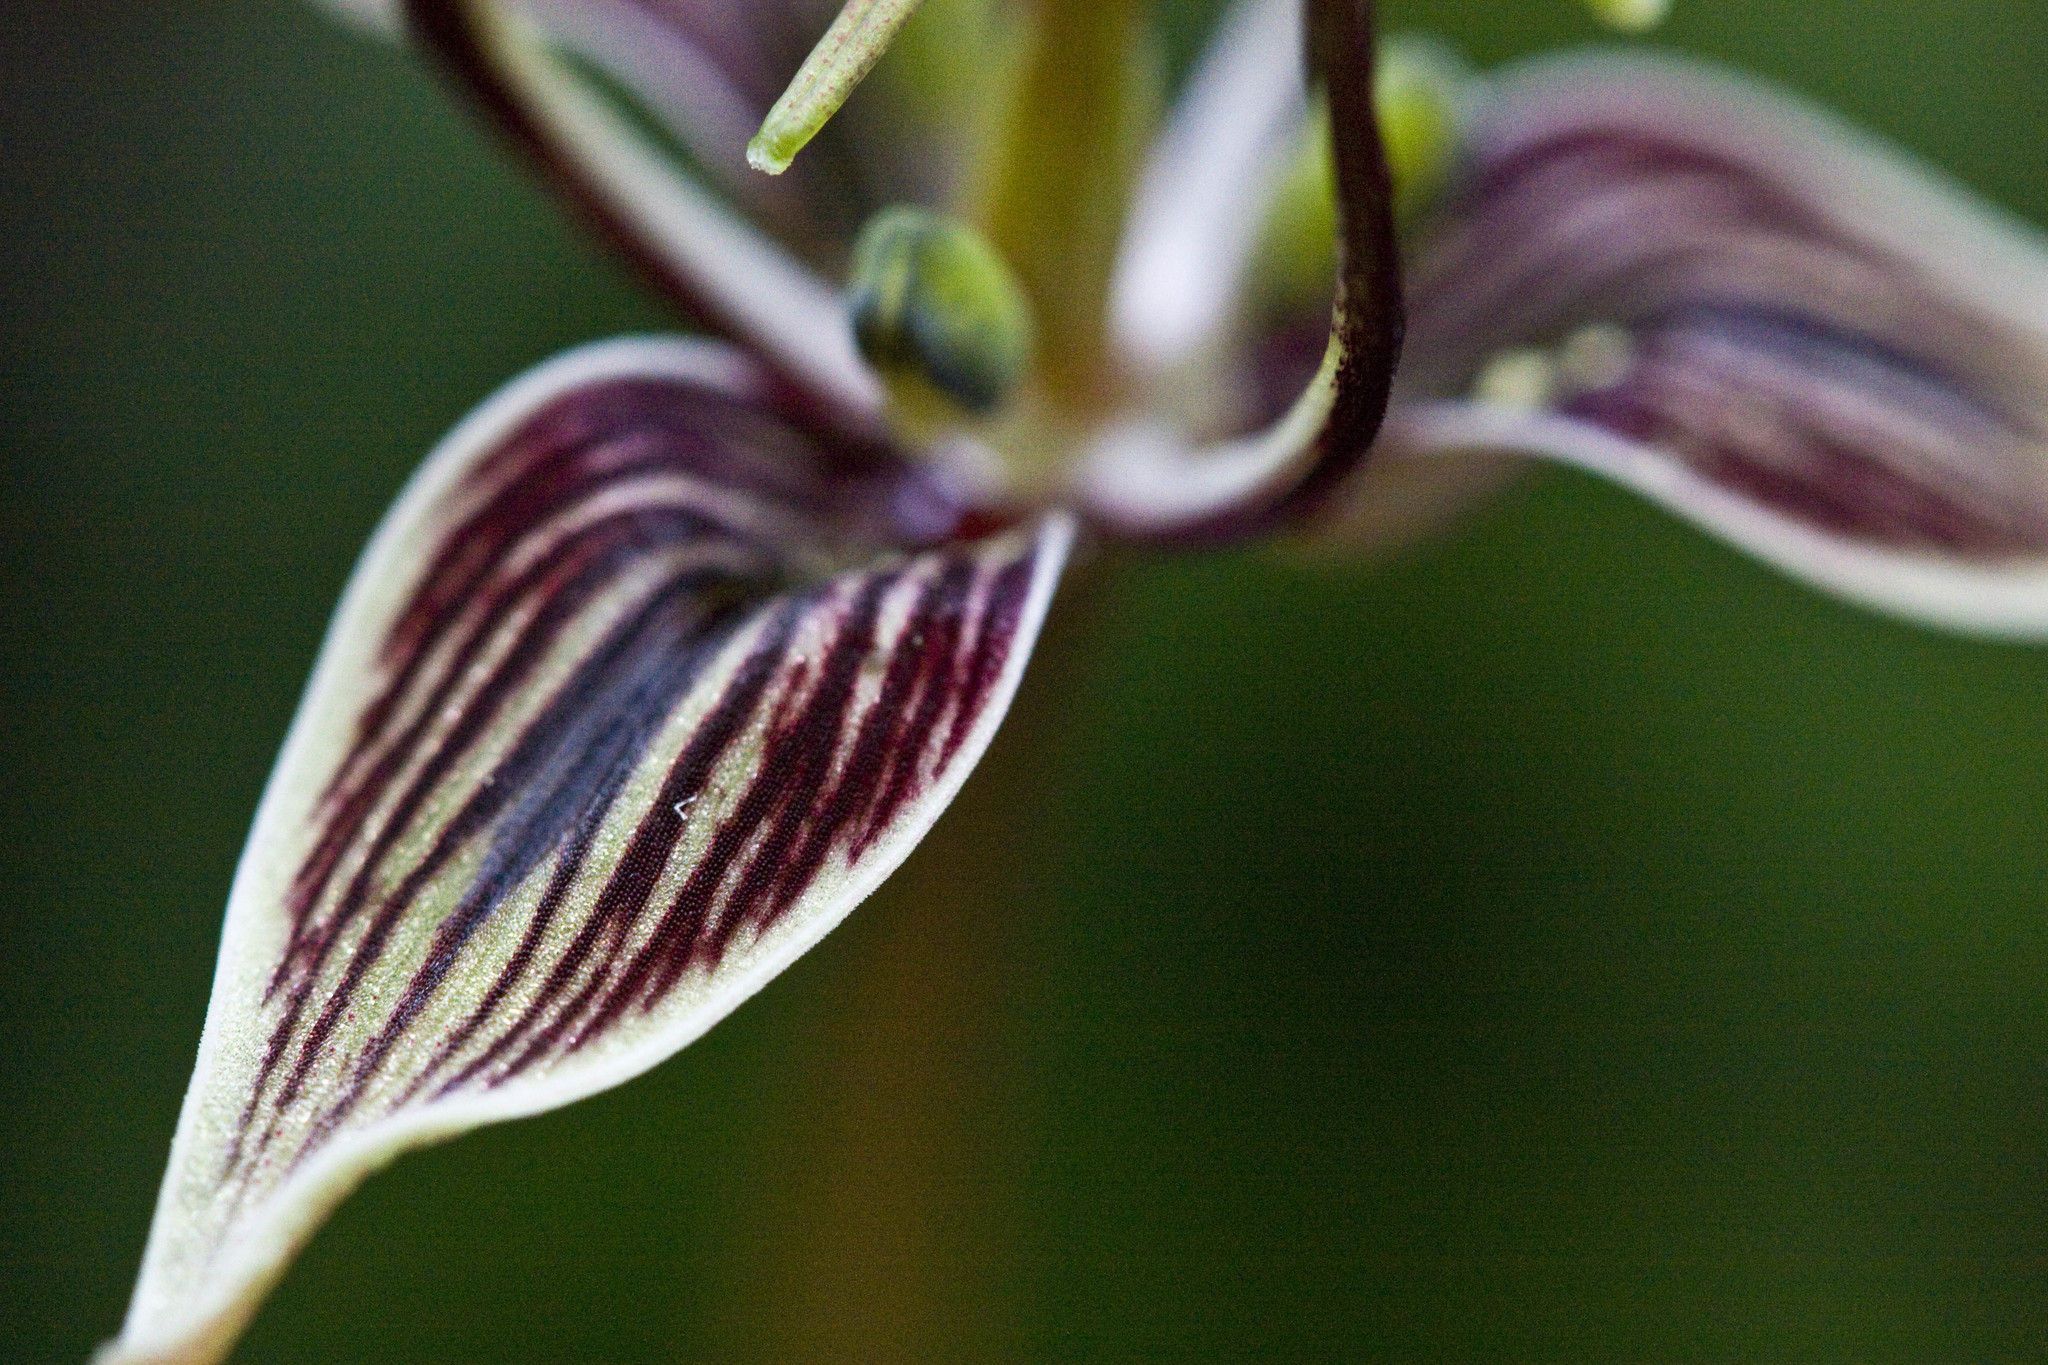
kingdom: Plantae
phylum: Tracheophyta
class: Liliopsida
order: Liliales
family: Liliaceae
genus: Scoliopus
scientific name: Scoliopus bigelovii
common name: Foetid adder's-tongue
